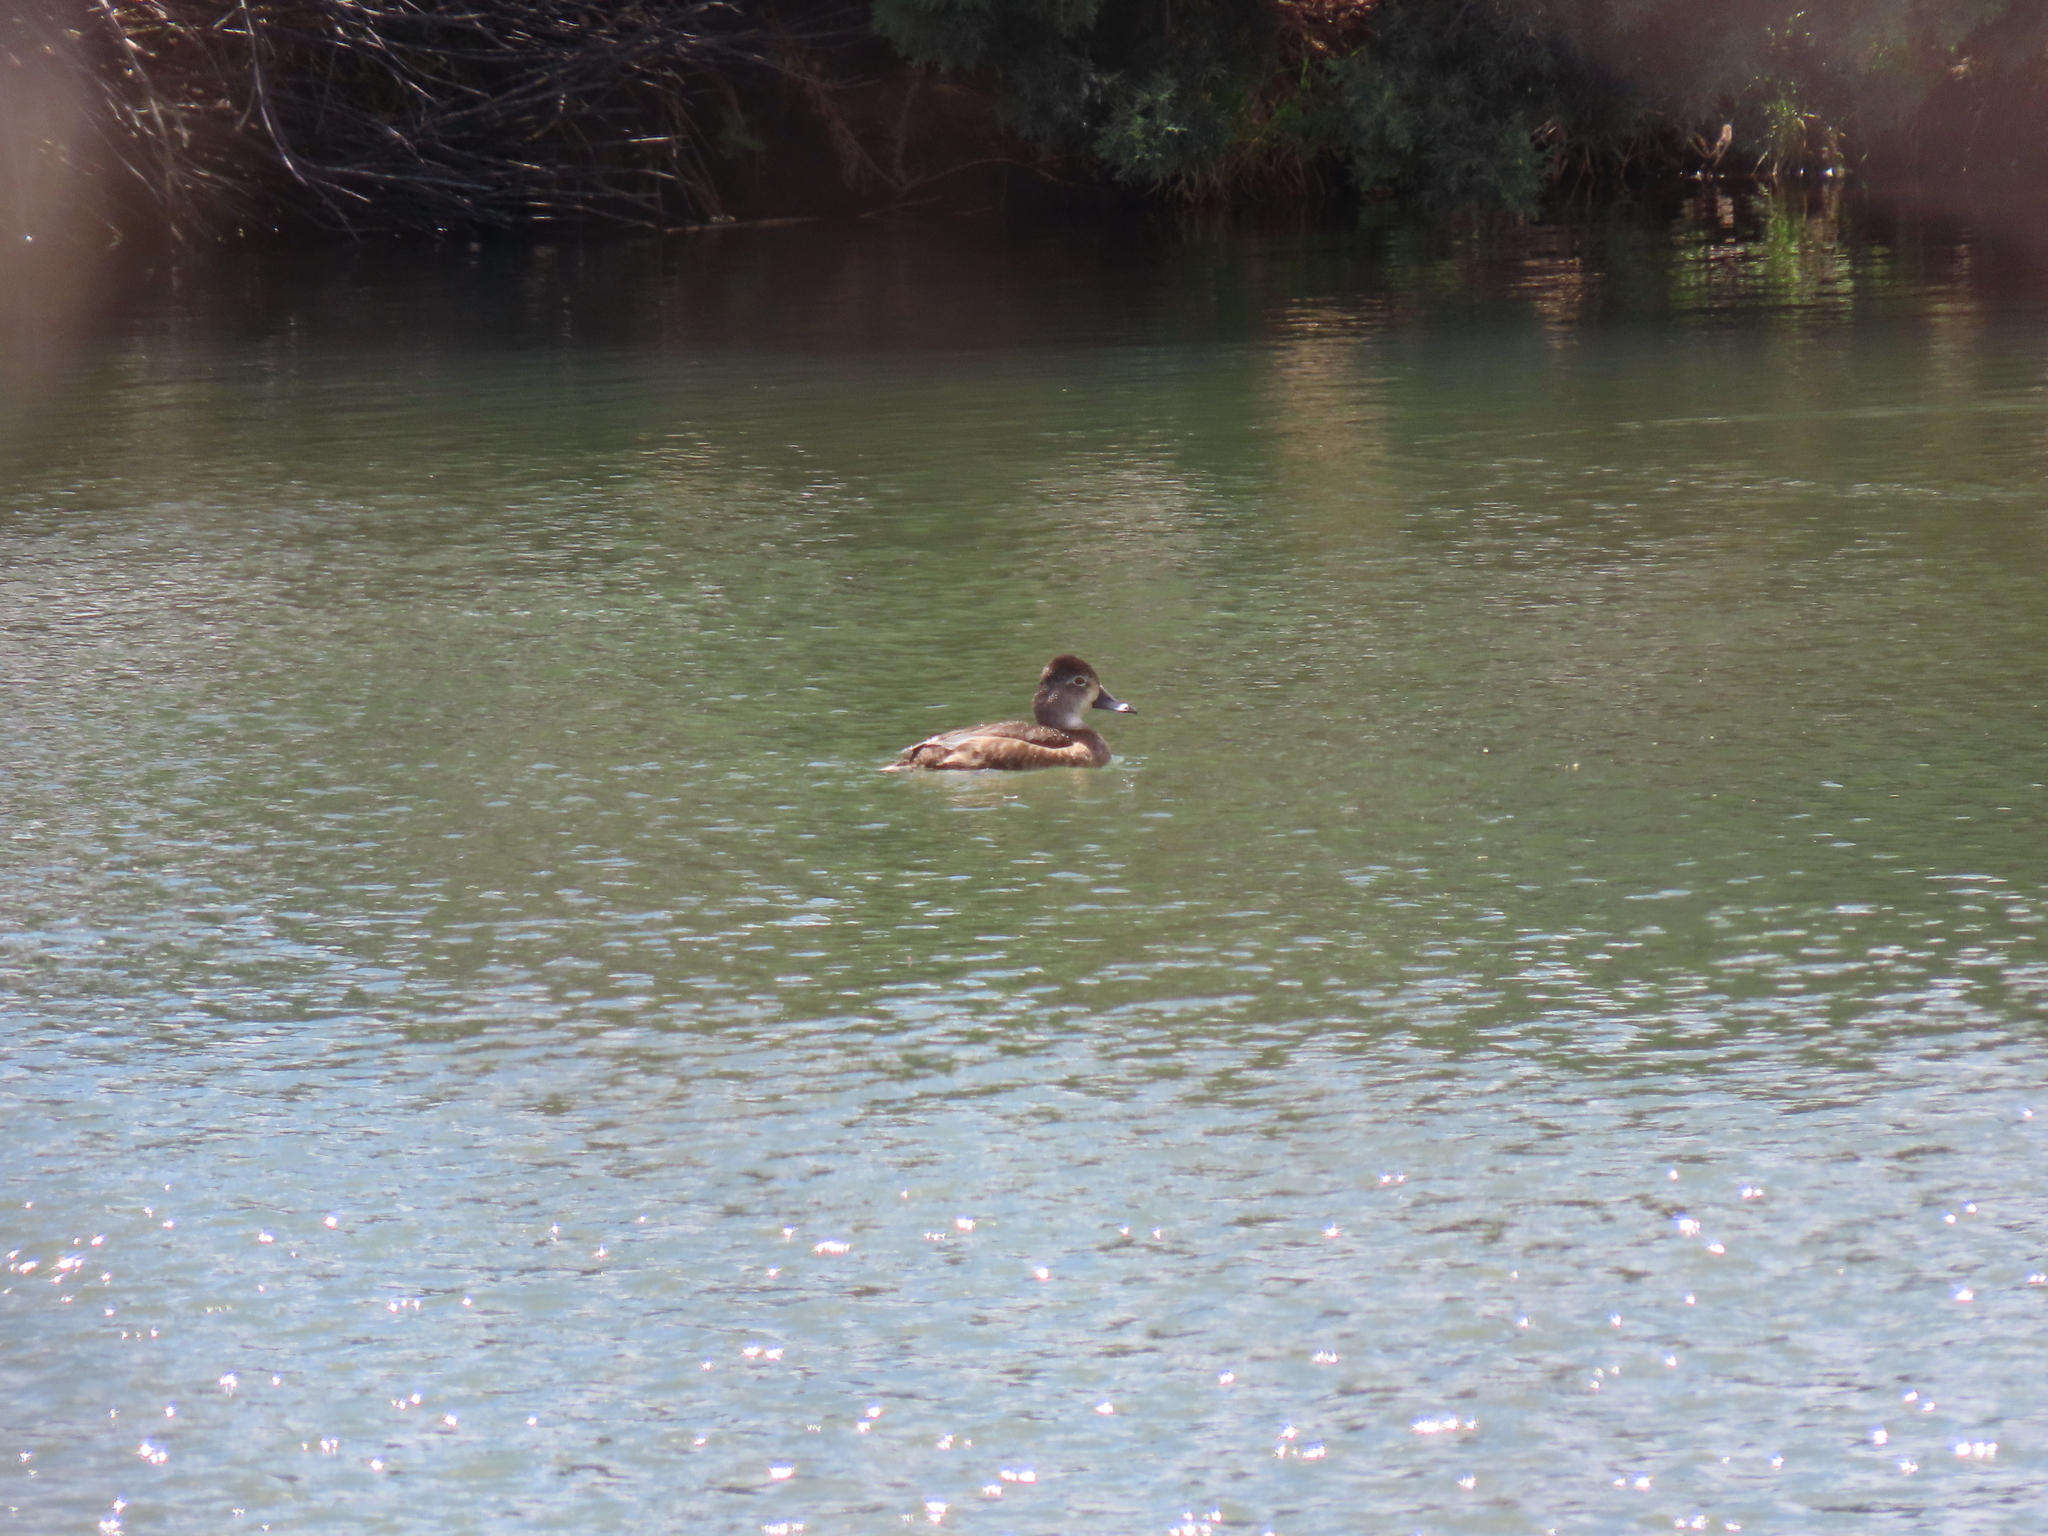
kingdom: Animalia
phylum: Chordata
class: Aves
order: Anseriformes
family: Anatidae
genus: Aythya
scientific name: Aythya collaris
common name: Ring-necked duck
